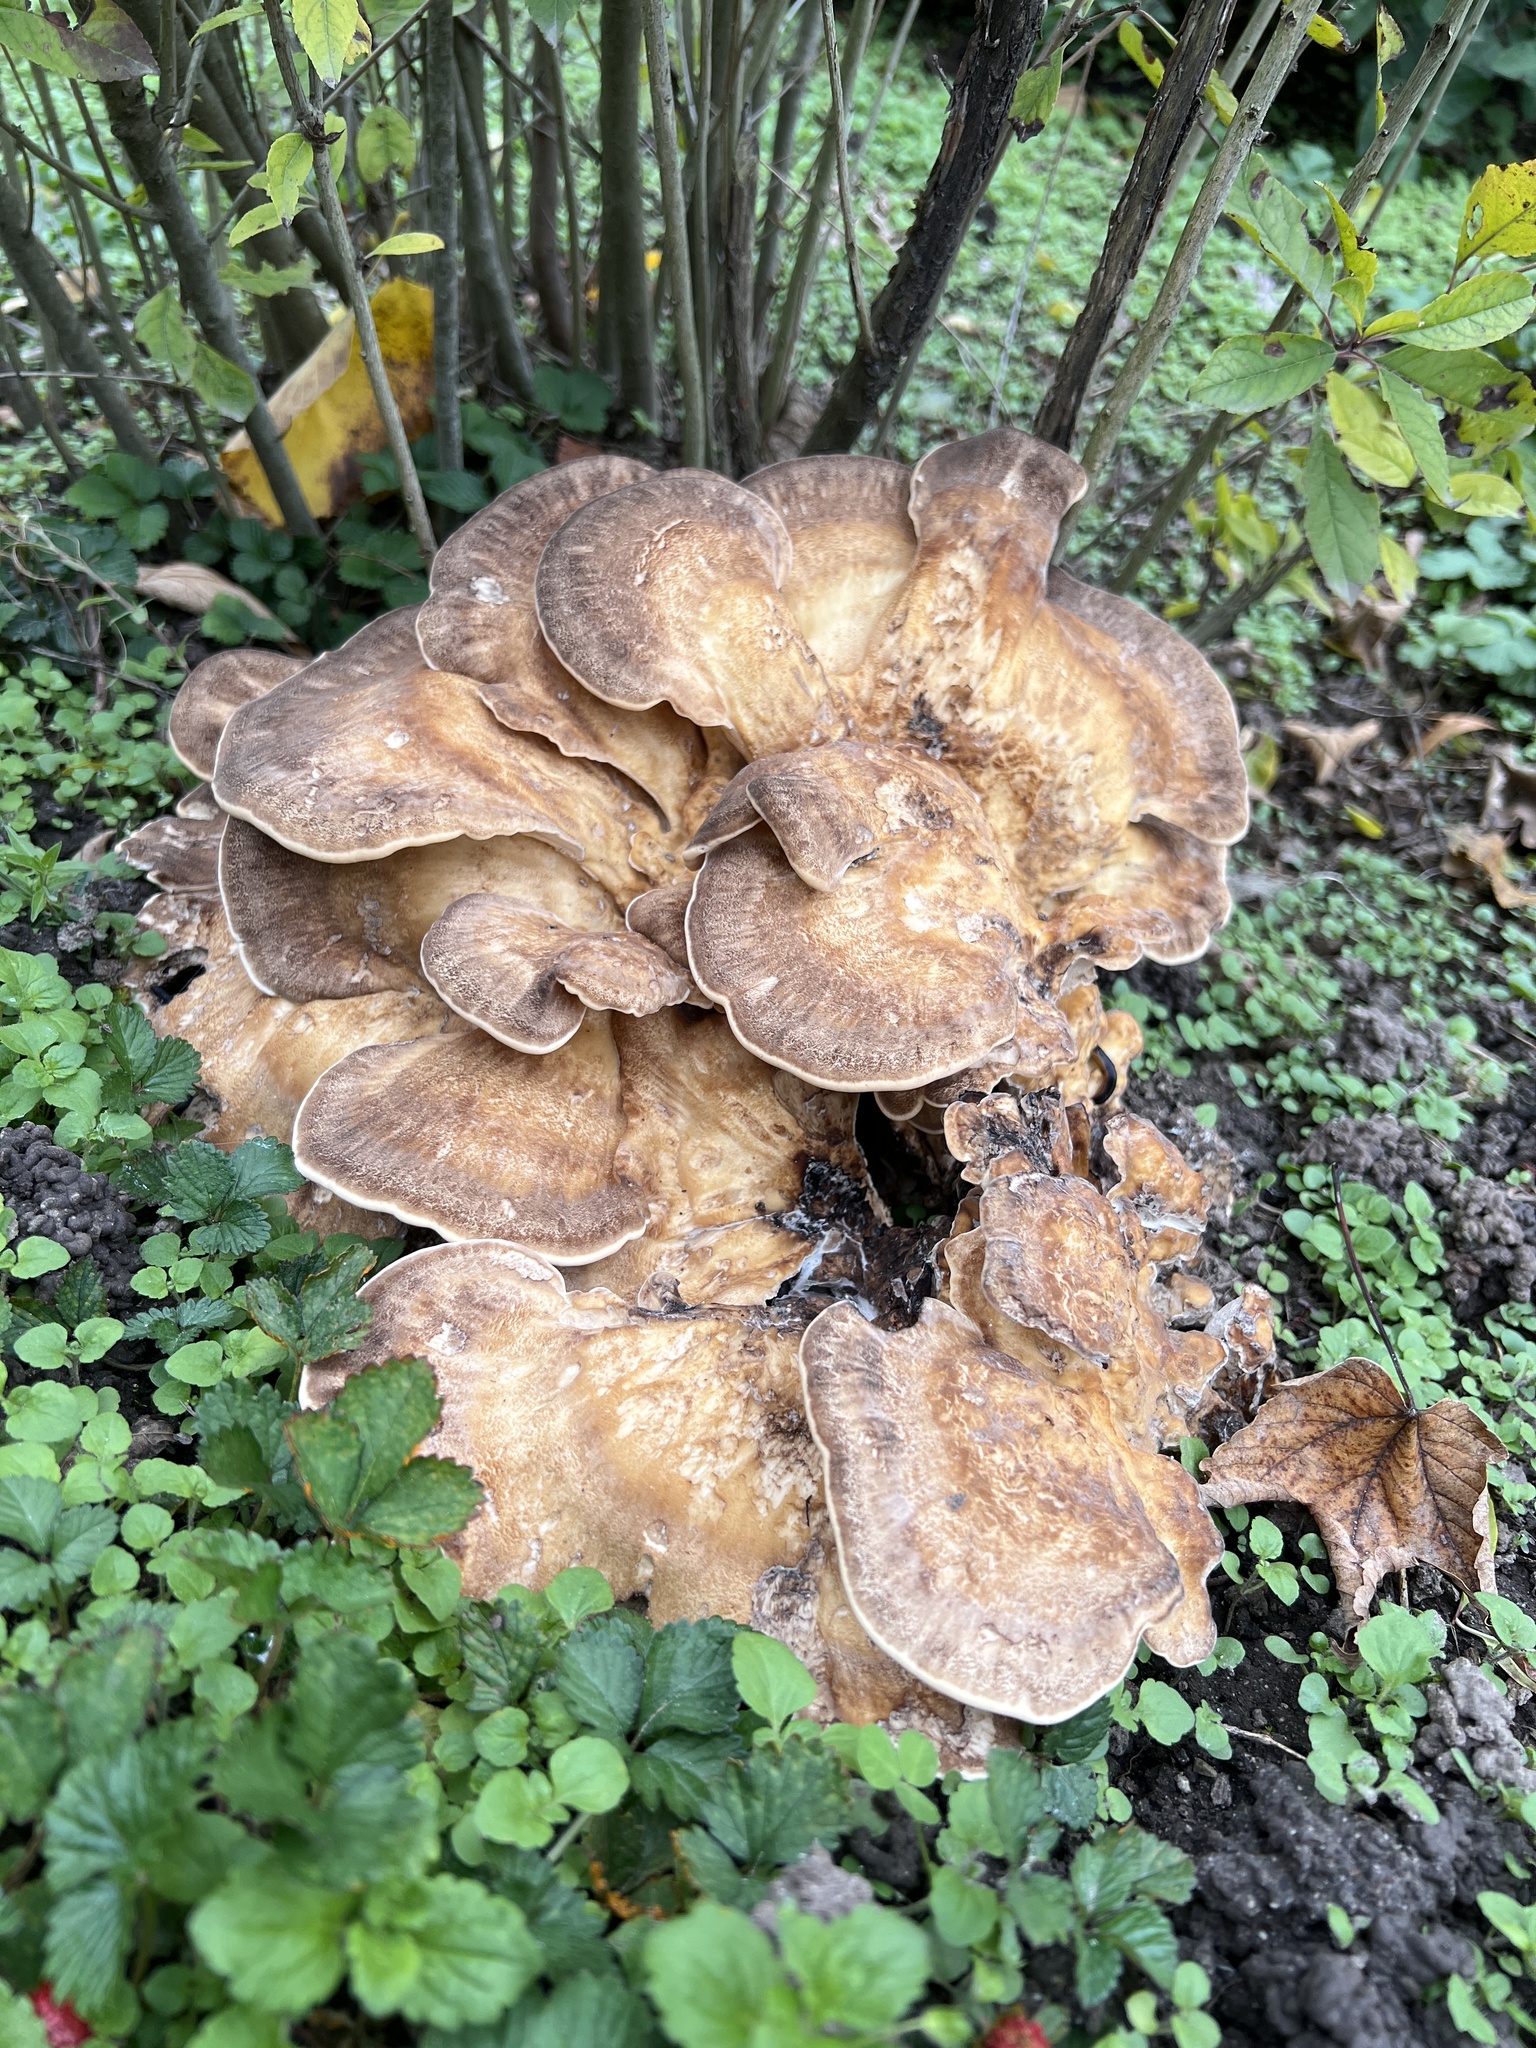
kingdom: Fungi
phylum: Basidiomycota
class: Agaricomycetes
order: Polyporales
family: Meripilaceae
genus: Meripilus
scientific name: Meripilus giganteus
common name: Giant polypore
